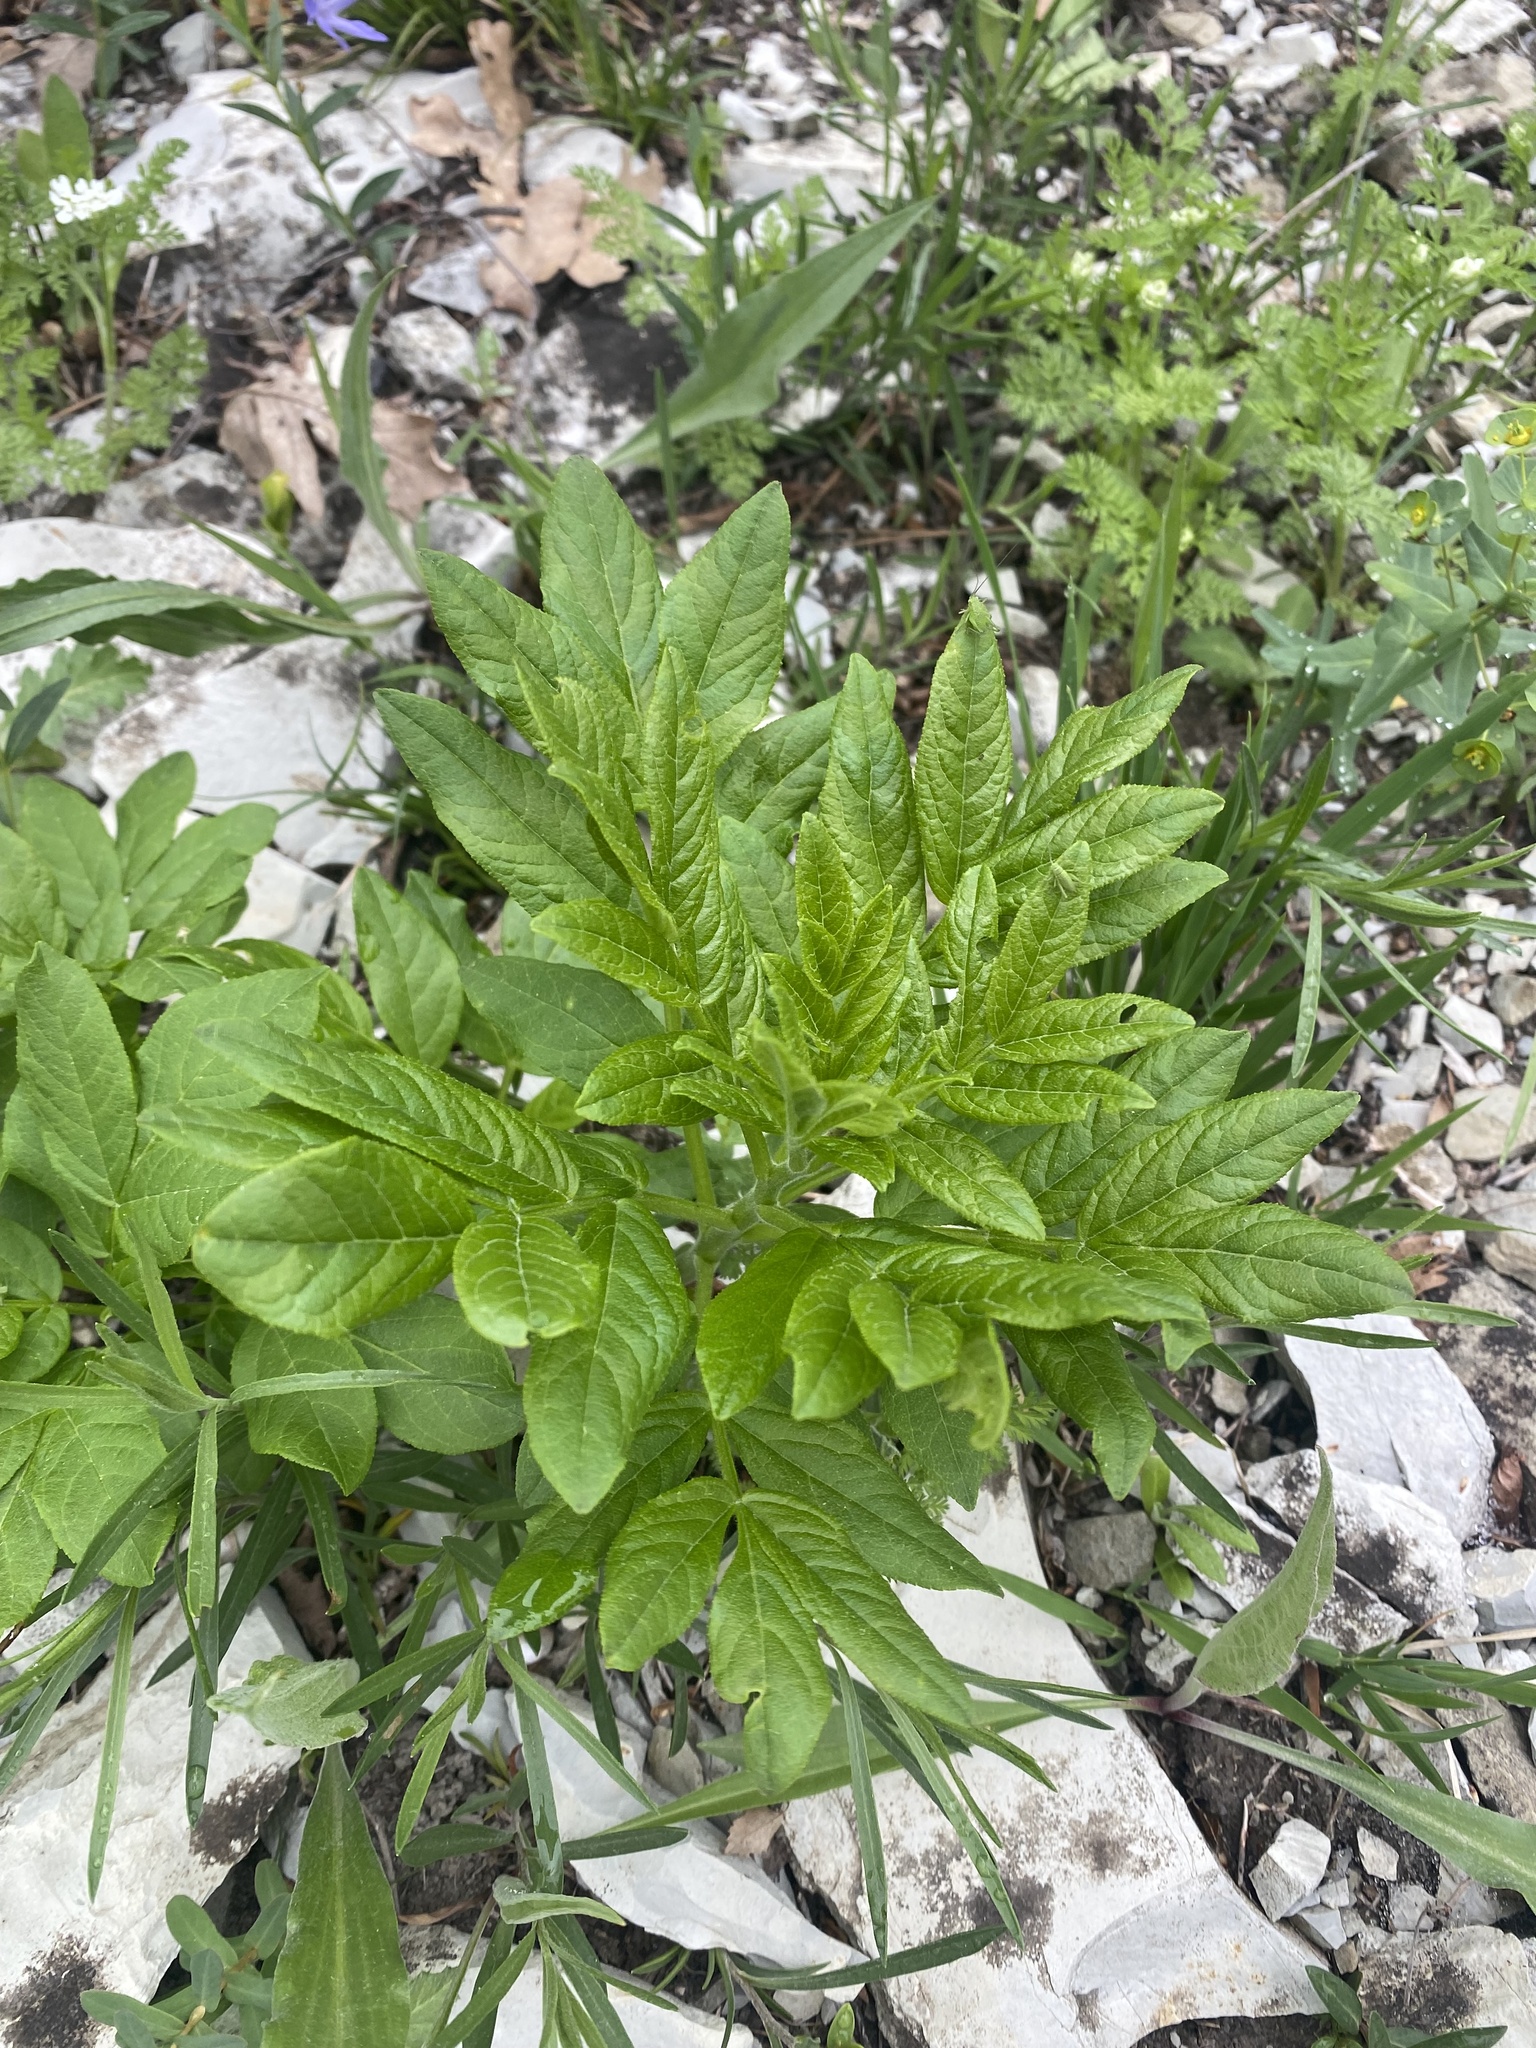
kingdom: Plantae
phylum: Tracheophyta
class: Magnoliopsida
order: Sapindales
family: Rutaceae
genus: Dictamnus
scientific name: Dictamnus albus
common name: Gasplant
